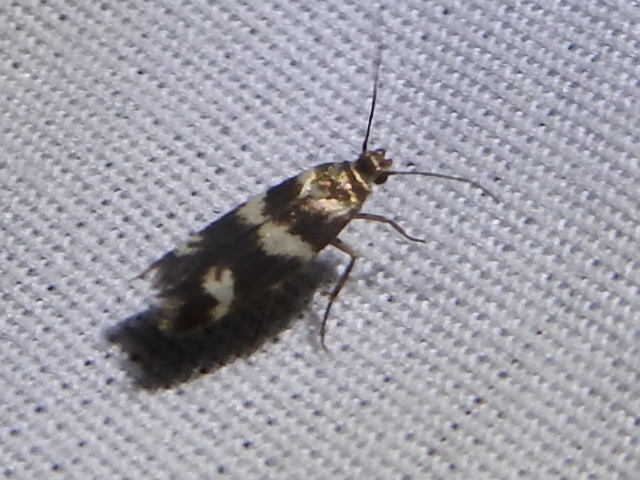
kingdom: Animalia
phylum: Arthropoda
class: Insecta
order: Lepidoptera
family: Scythrididae
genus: Scythris
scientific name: Scythris trivinctella
